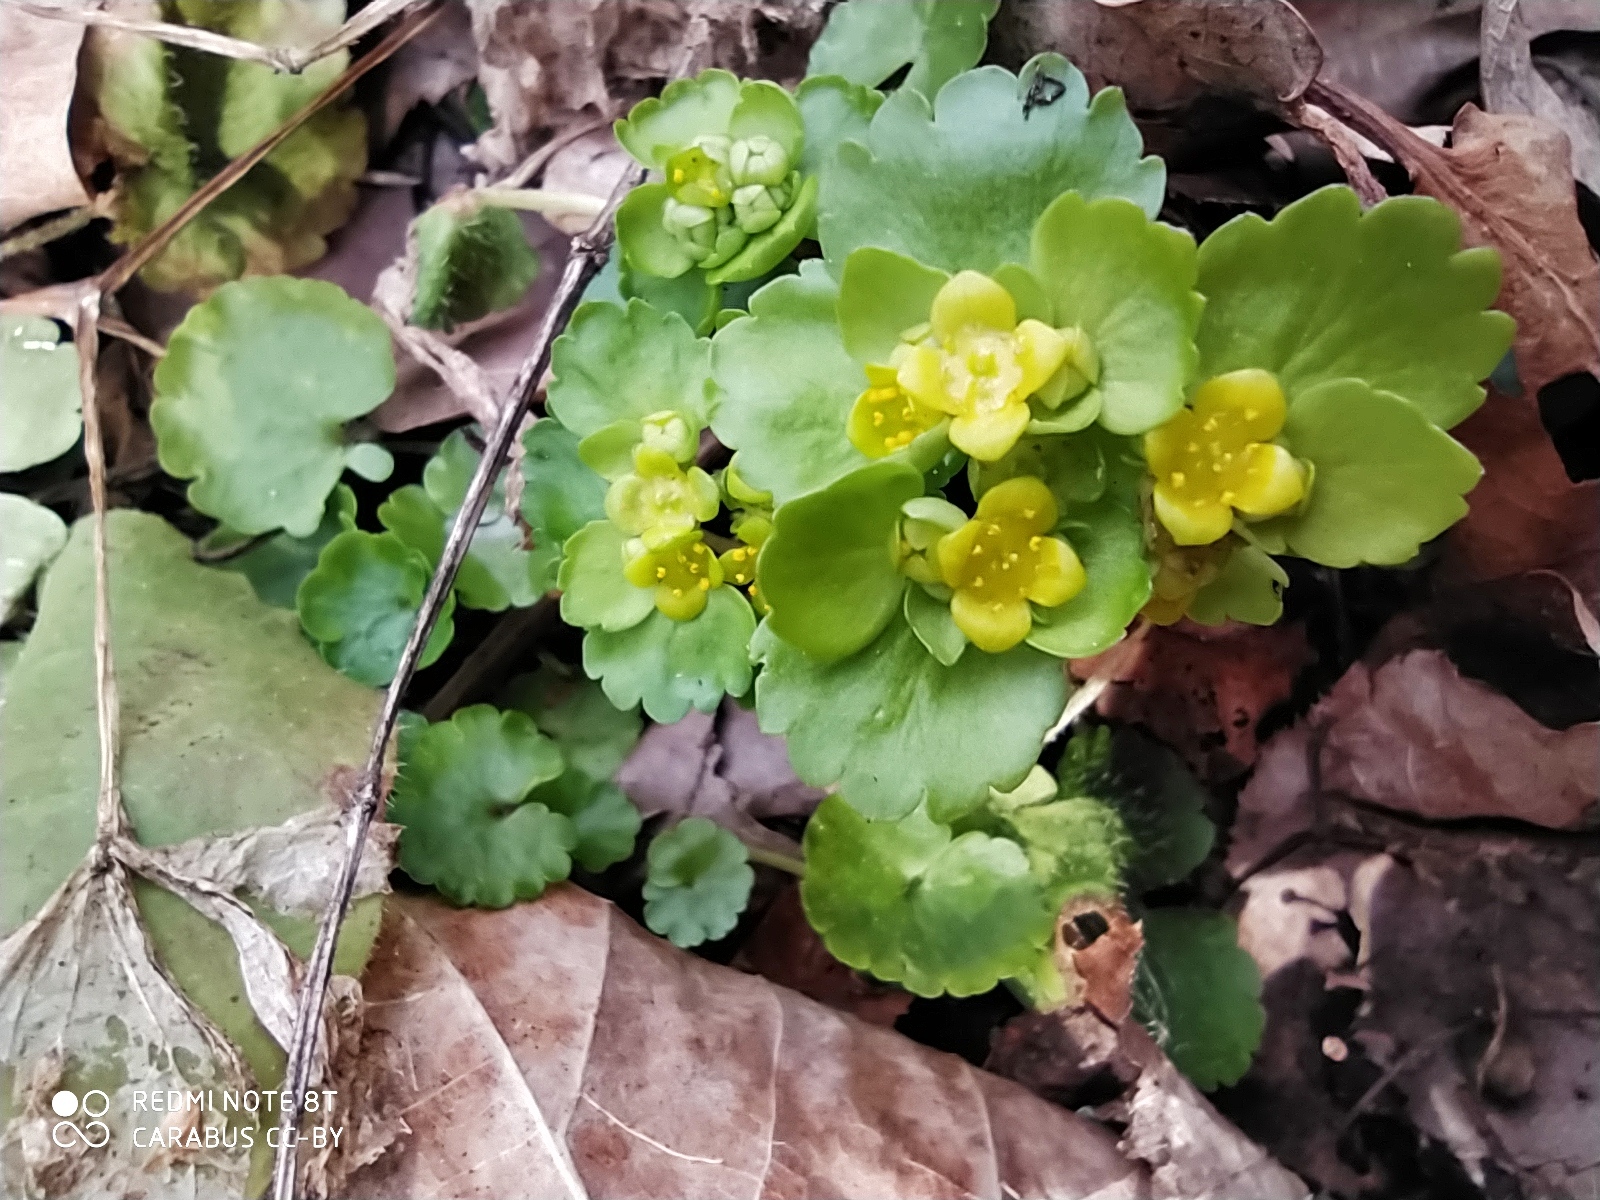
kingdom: Plantae
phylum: Tracheophyta
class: Magnoliopsida
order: Saxifragales
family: Saxifragaceae
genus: Chrysosplenium
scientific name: Chrysosplenium alternifolium
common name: Alternate-leaved golden-saxifrage
